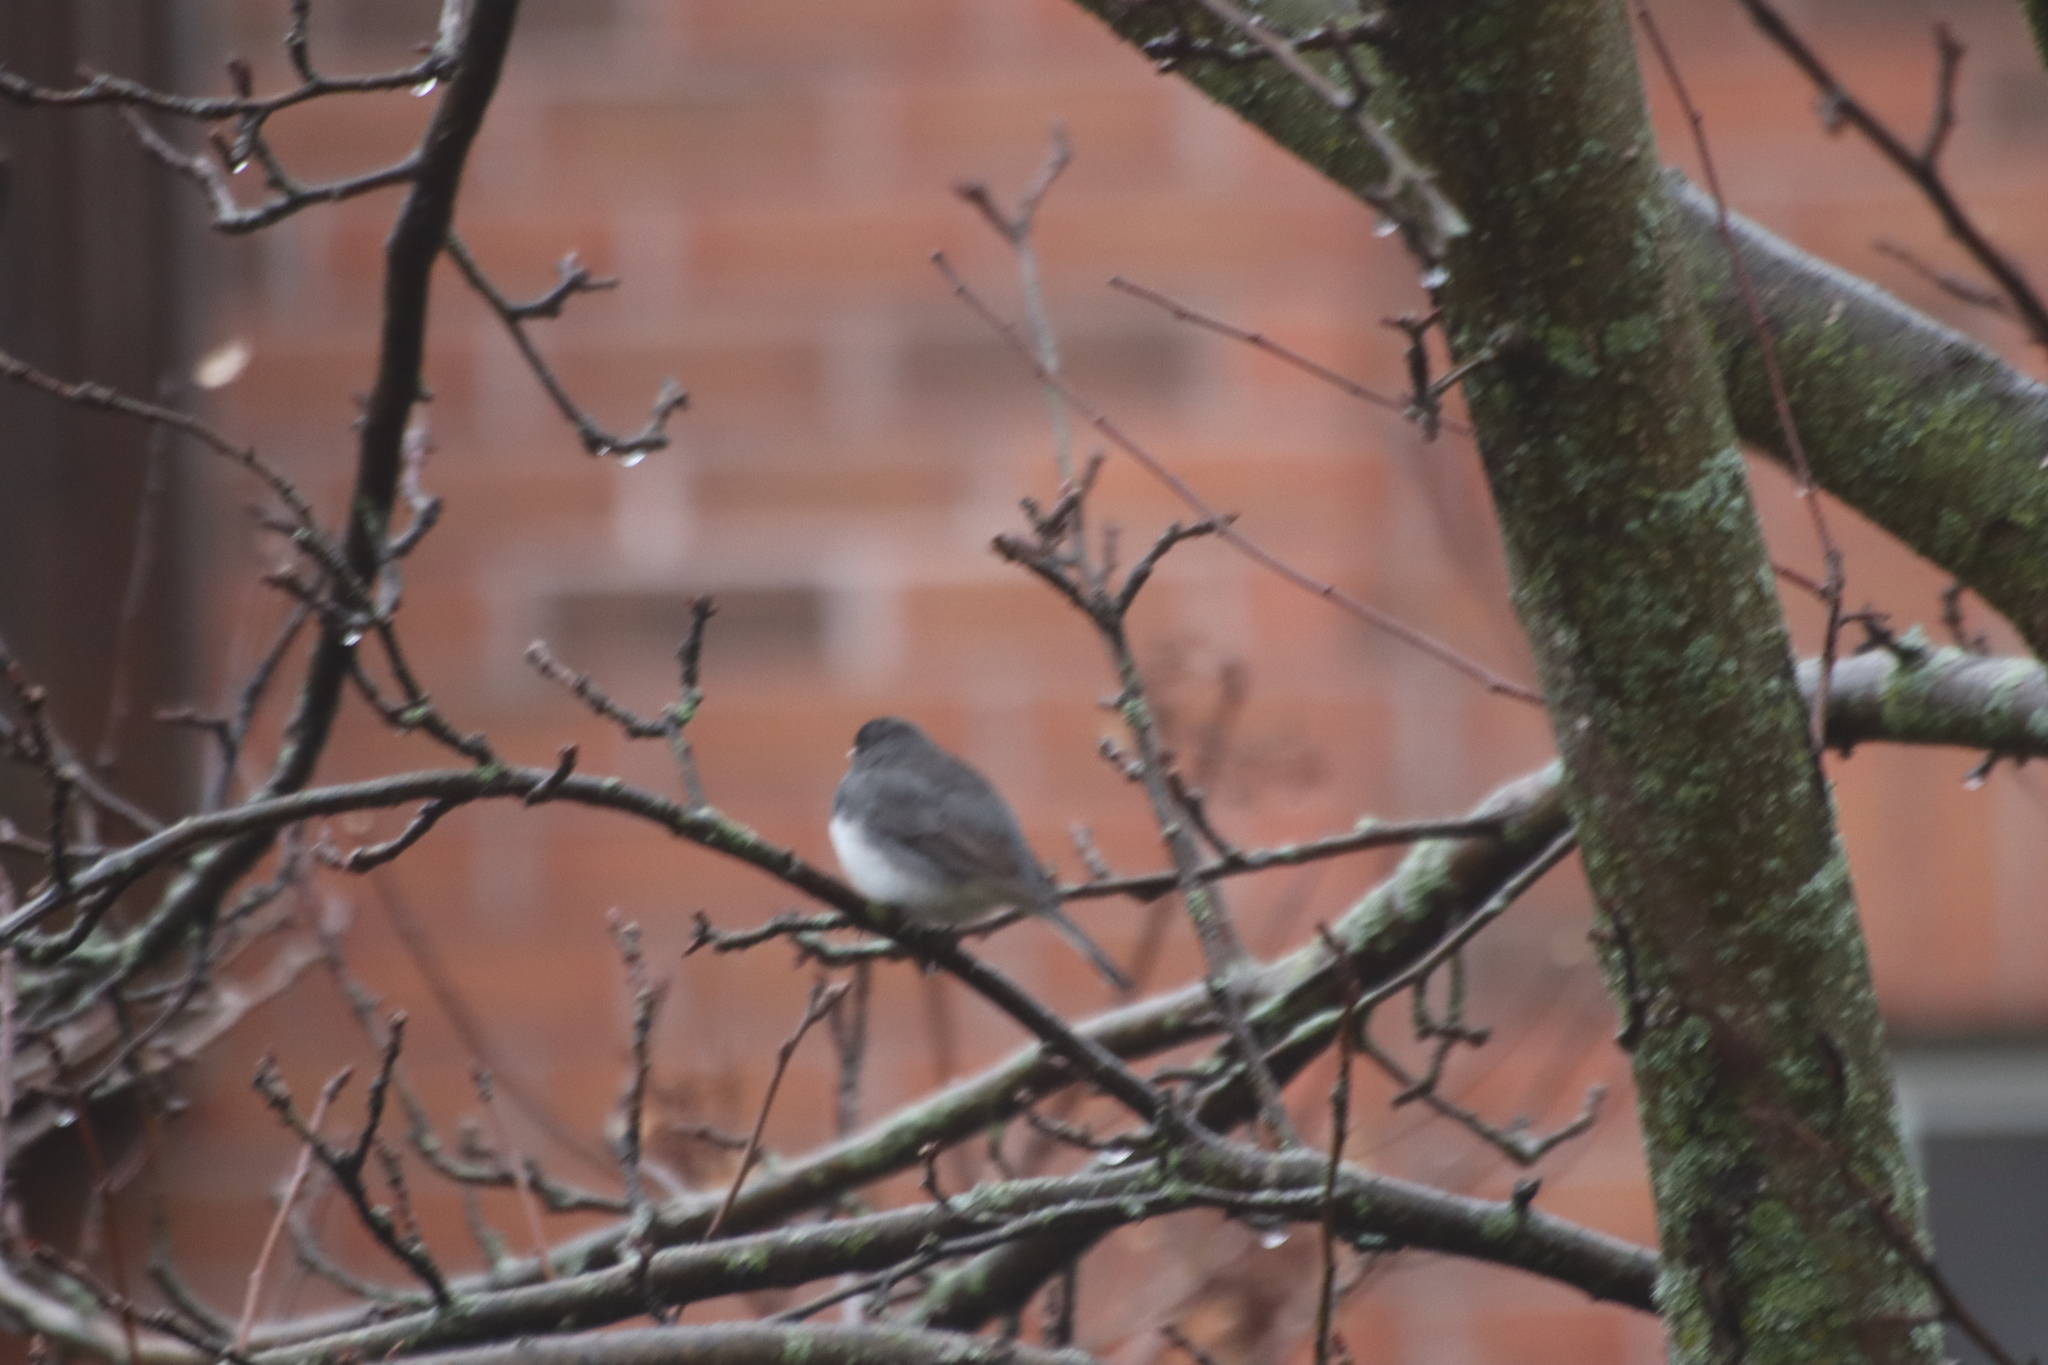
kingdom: Animalia
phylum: Chordata
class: Aves
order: Passeriformes
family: Passerellidae
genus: Junco
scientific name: Junco hyemalis
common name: Dark-eyed junco
